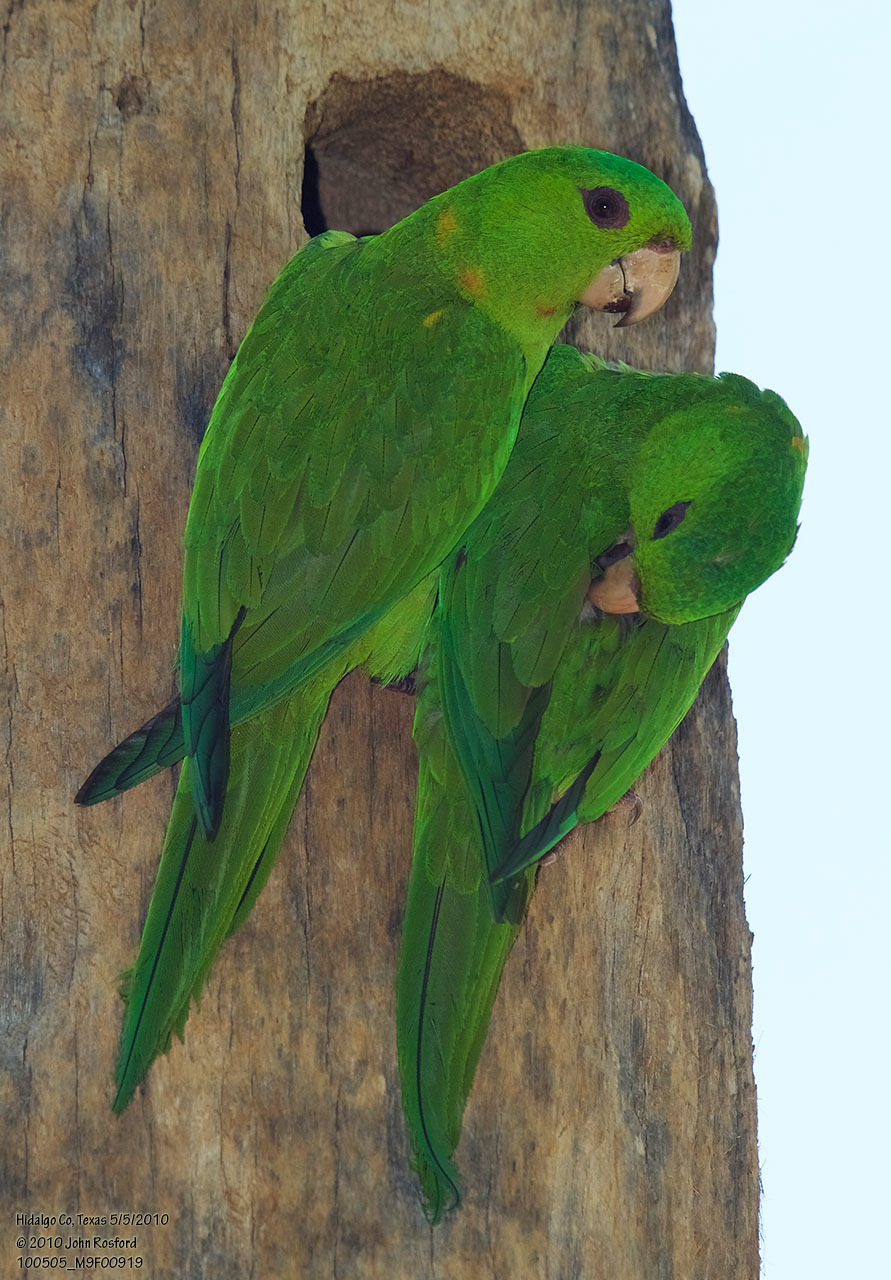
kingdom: Animalia
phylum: Chordata
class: Aves
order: Psittaciformes
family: Psittacidae
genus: Aratinga
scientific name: Aratinga holochlora
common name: Green parakeet
